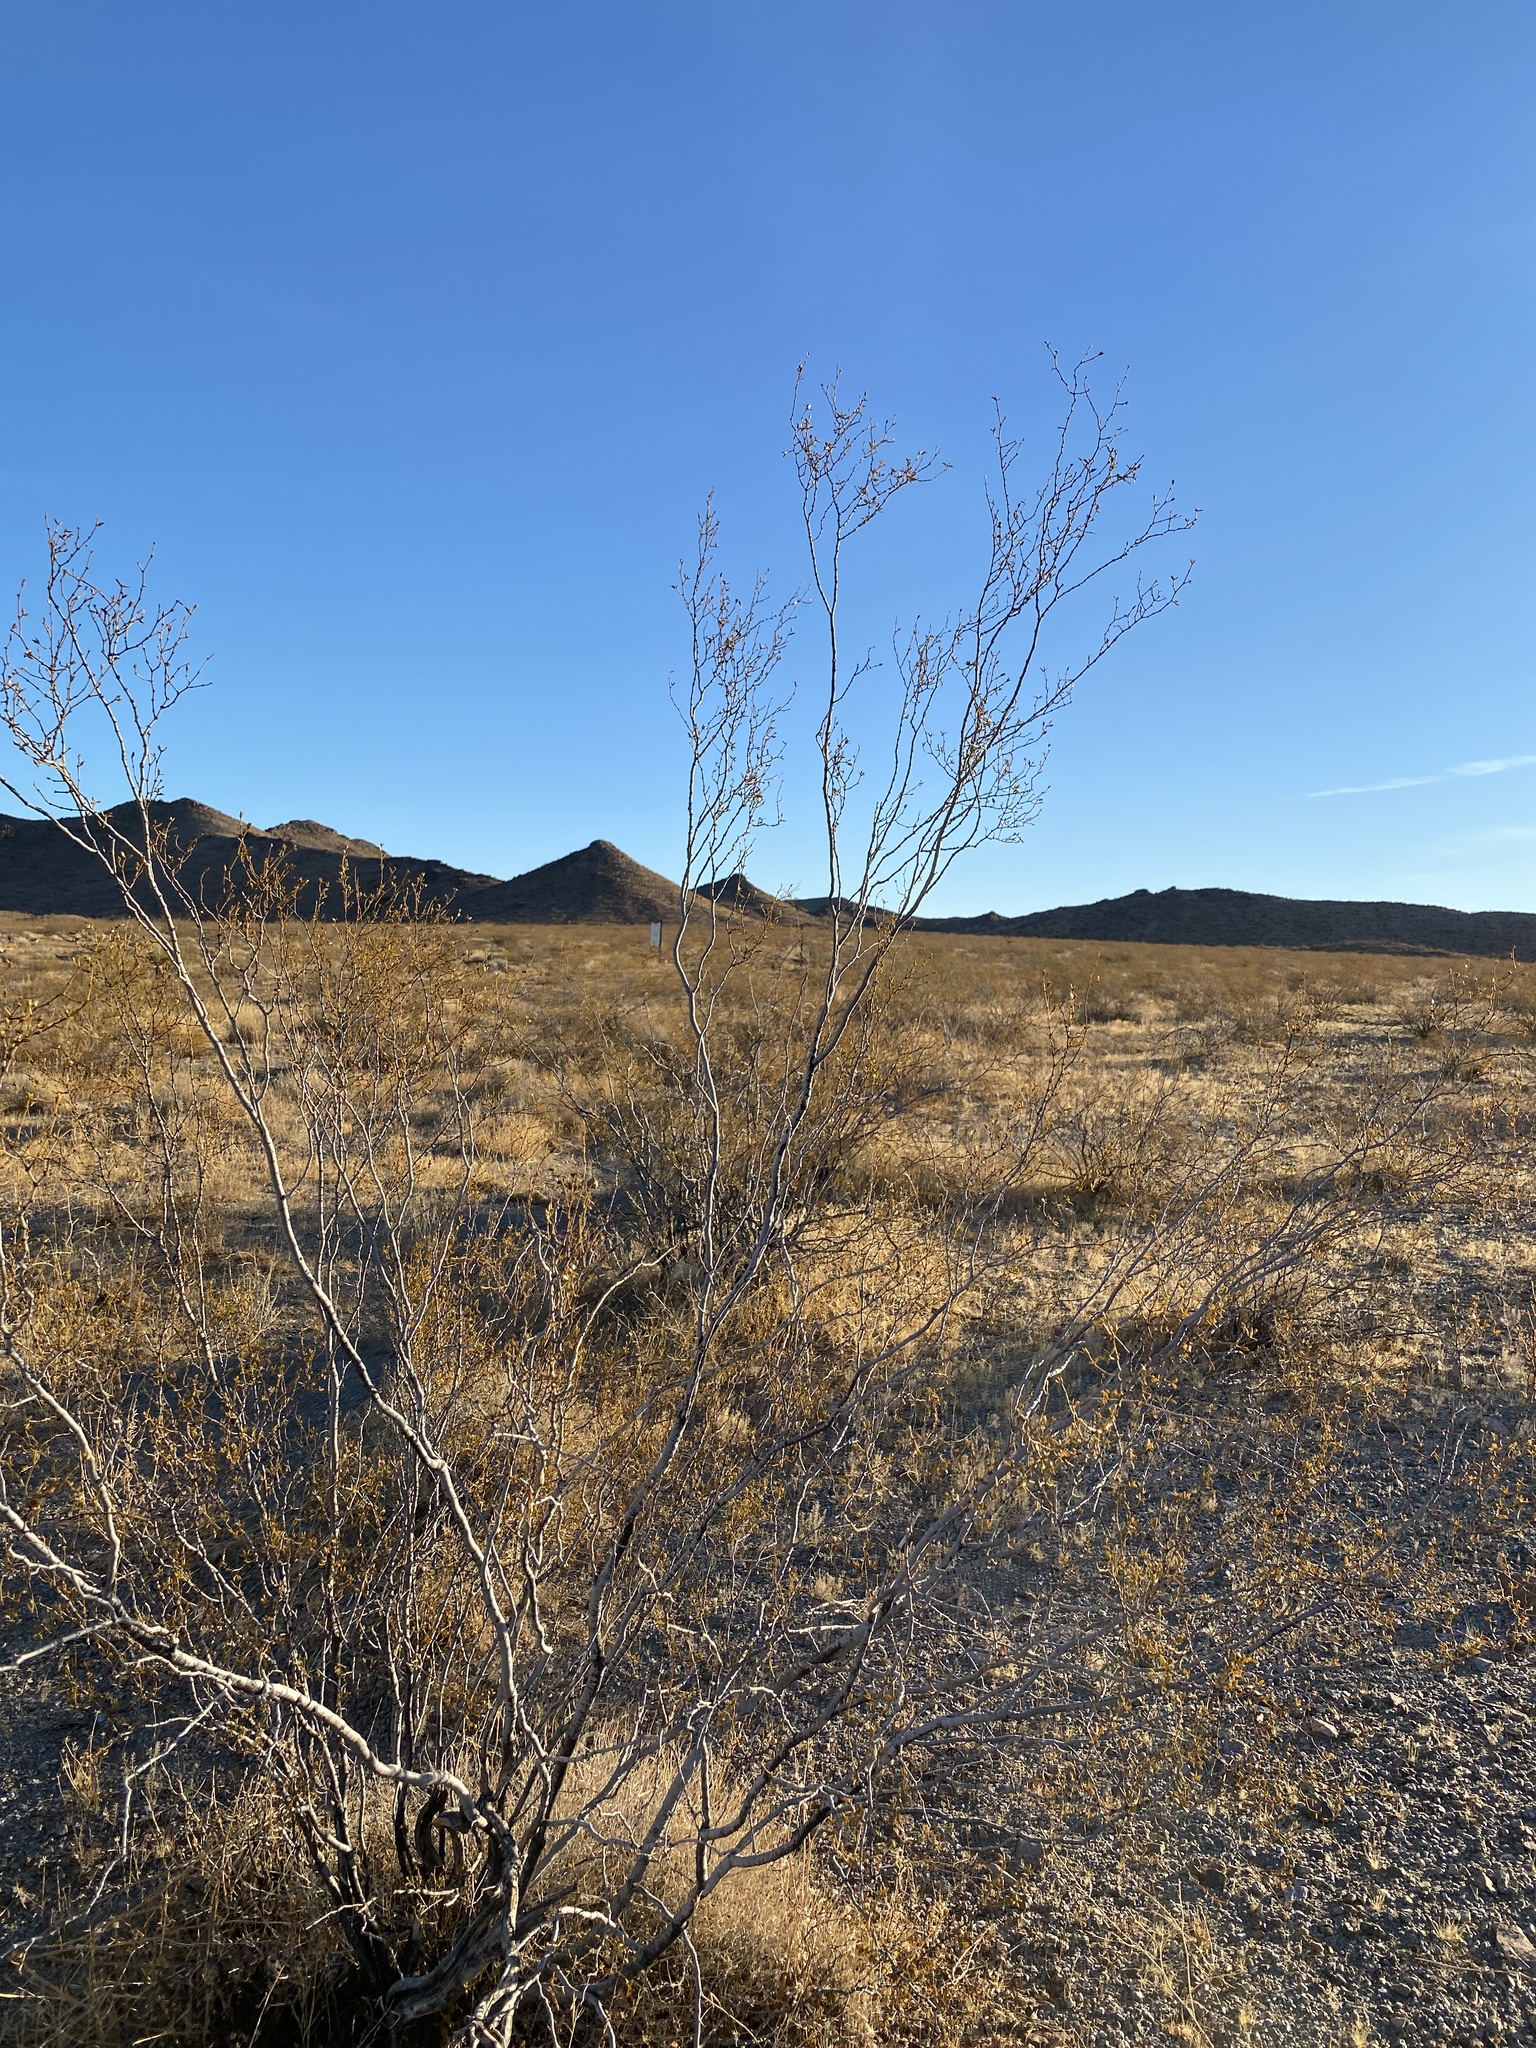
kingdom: Plantae
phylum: Tracheophyta
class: Magnoliopsida
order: Zygophyllales
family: Zygophyllaceae
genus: Larrea
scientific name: Larrea tridentata
